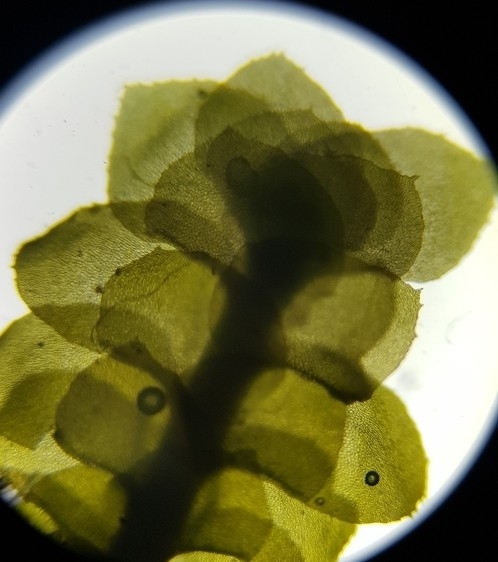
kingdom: Plantae
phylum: Marchantiophyta
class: Jungermanniopsida
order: Jungermanniales
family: Scapaniaceae
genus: Scapania
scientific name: Scapania aspera
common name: Rough earwort
